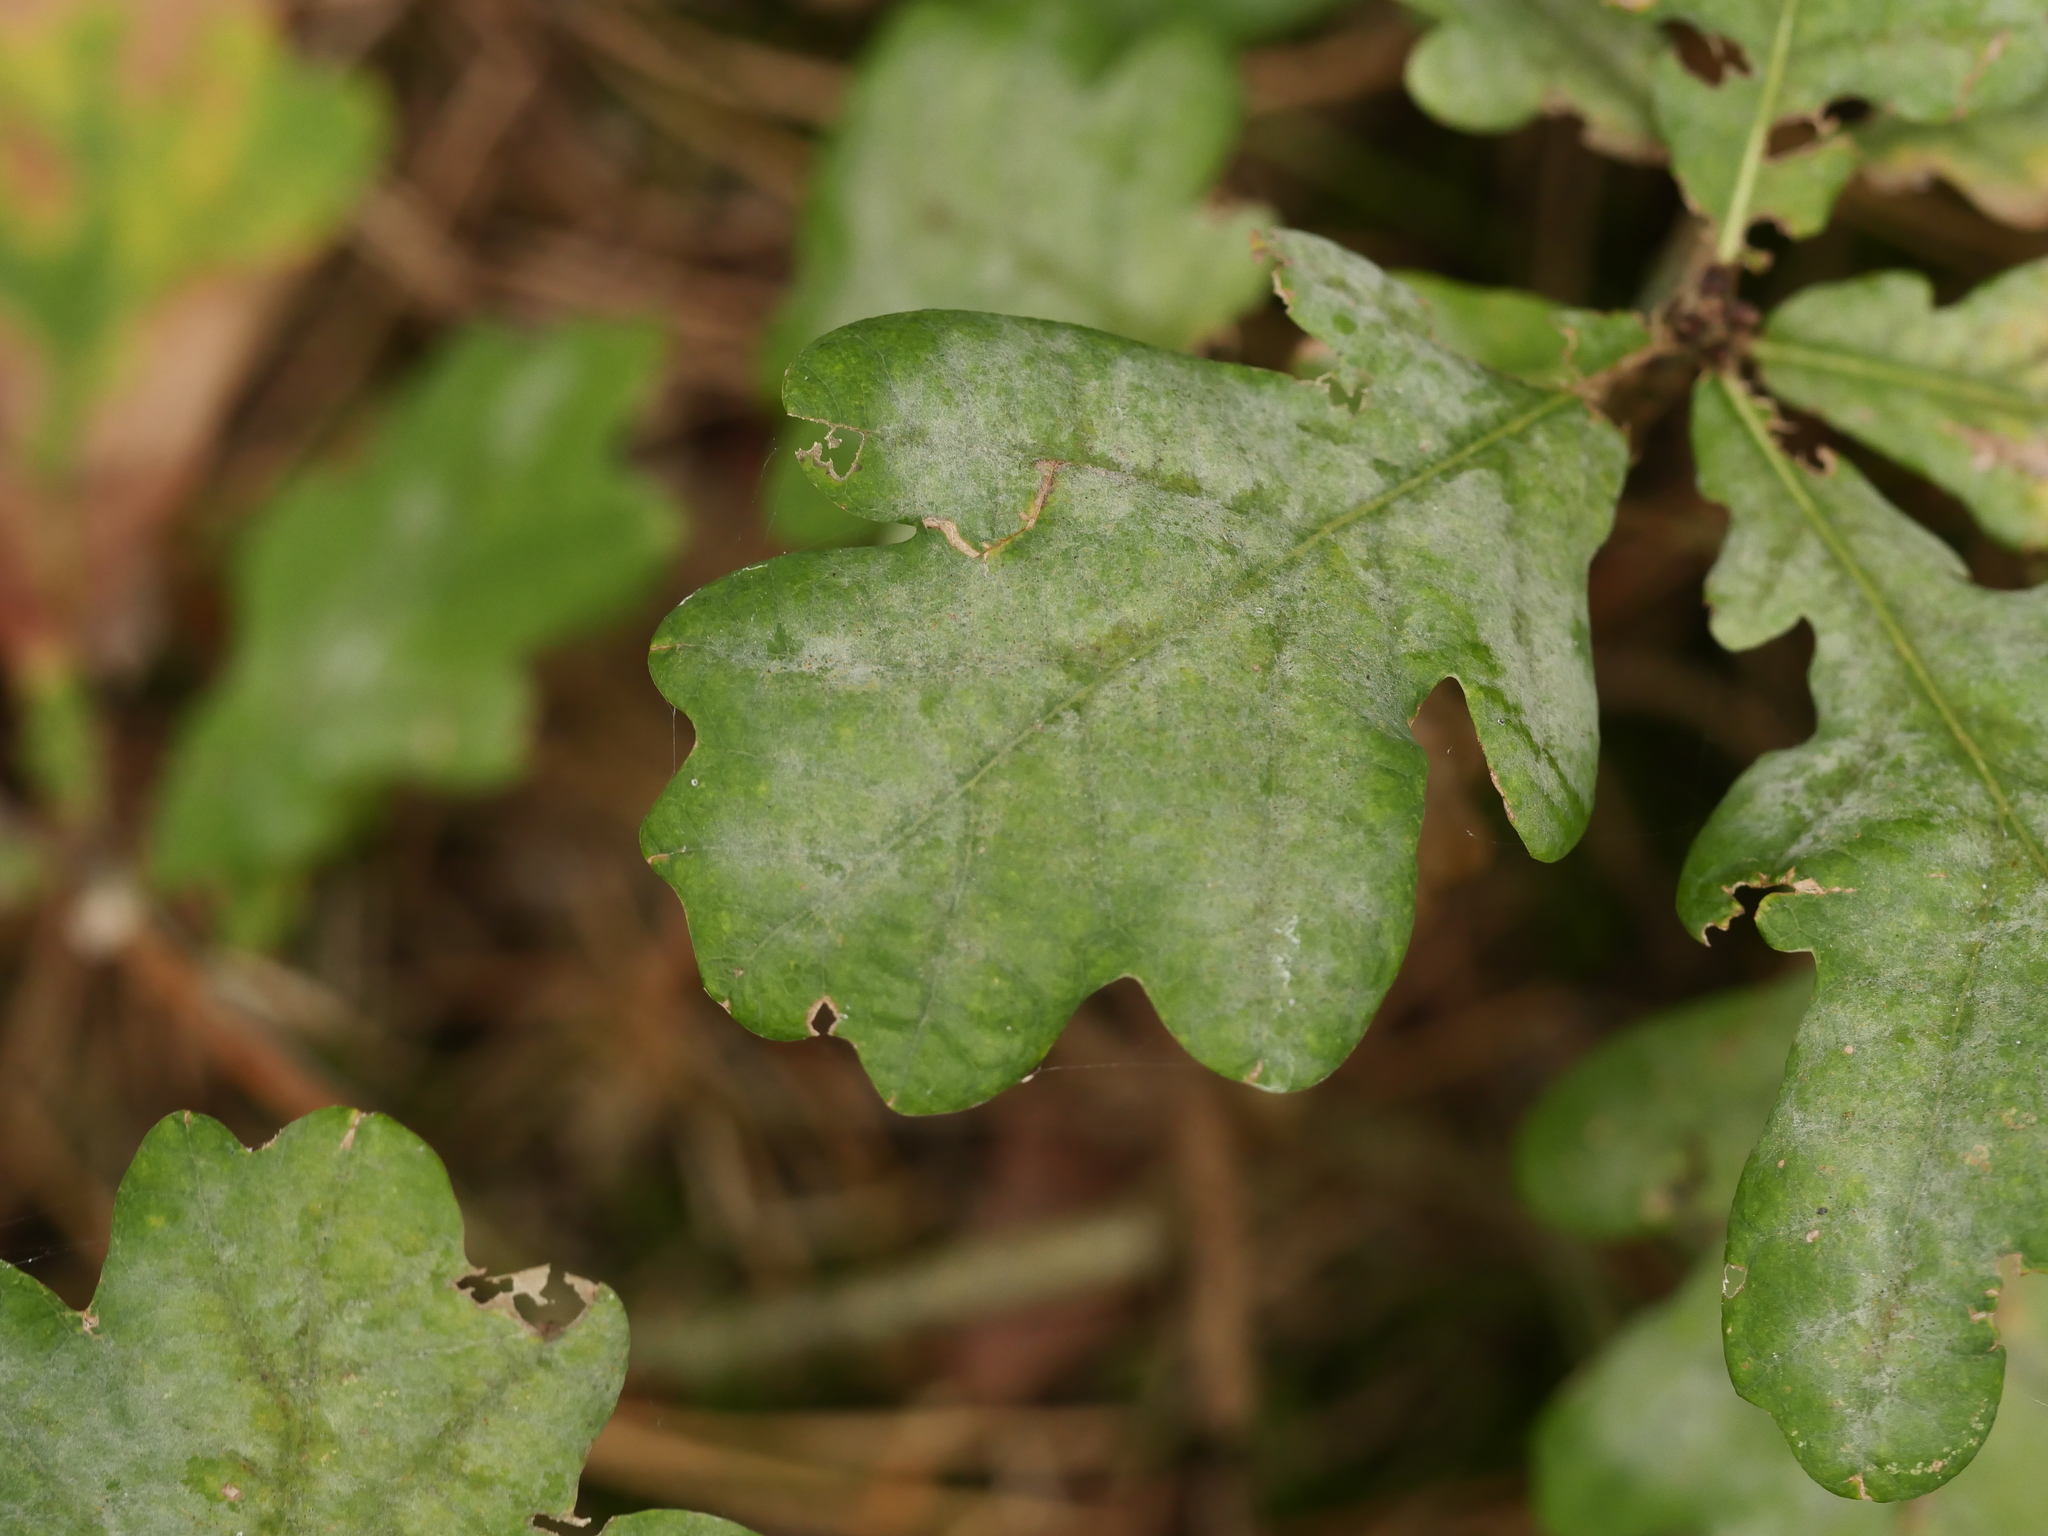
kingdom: Fungi
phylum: Ascomycota
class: Leotiomycetes
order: Helotiales
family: Erysiphaceae
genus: Erysiphe
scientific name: Erysiphe
